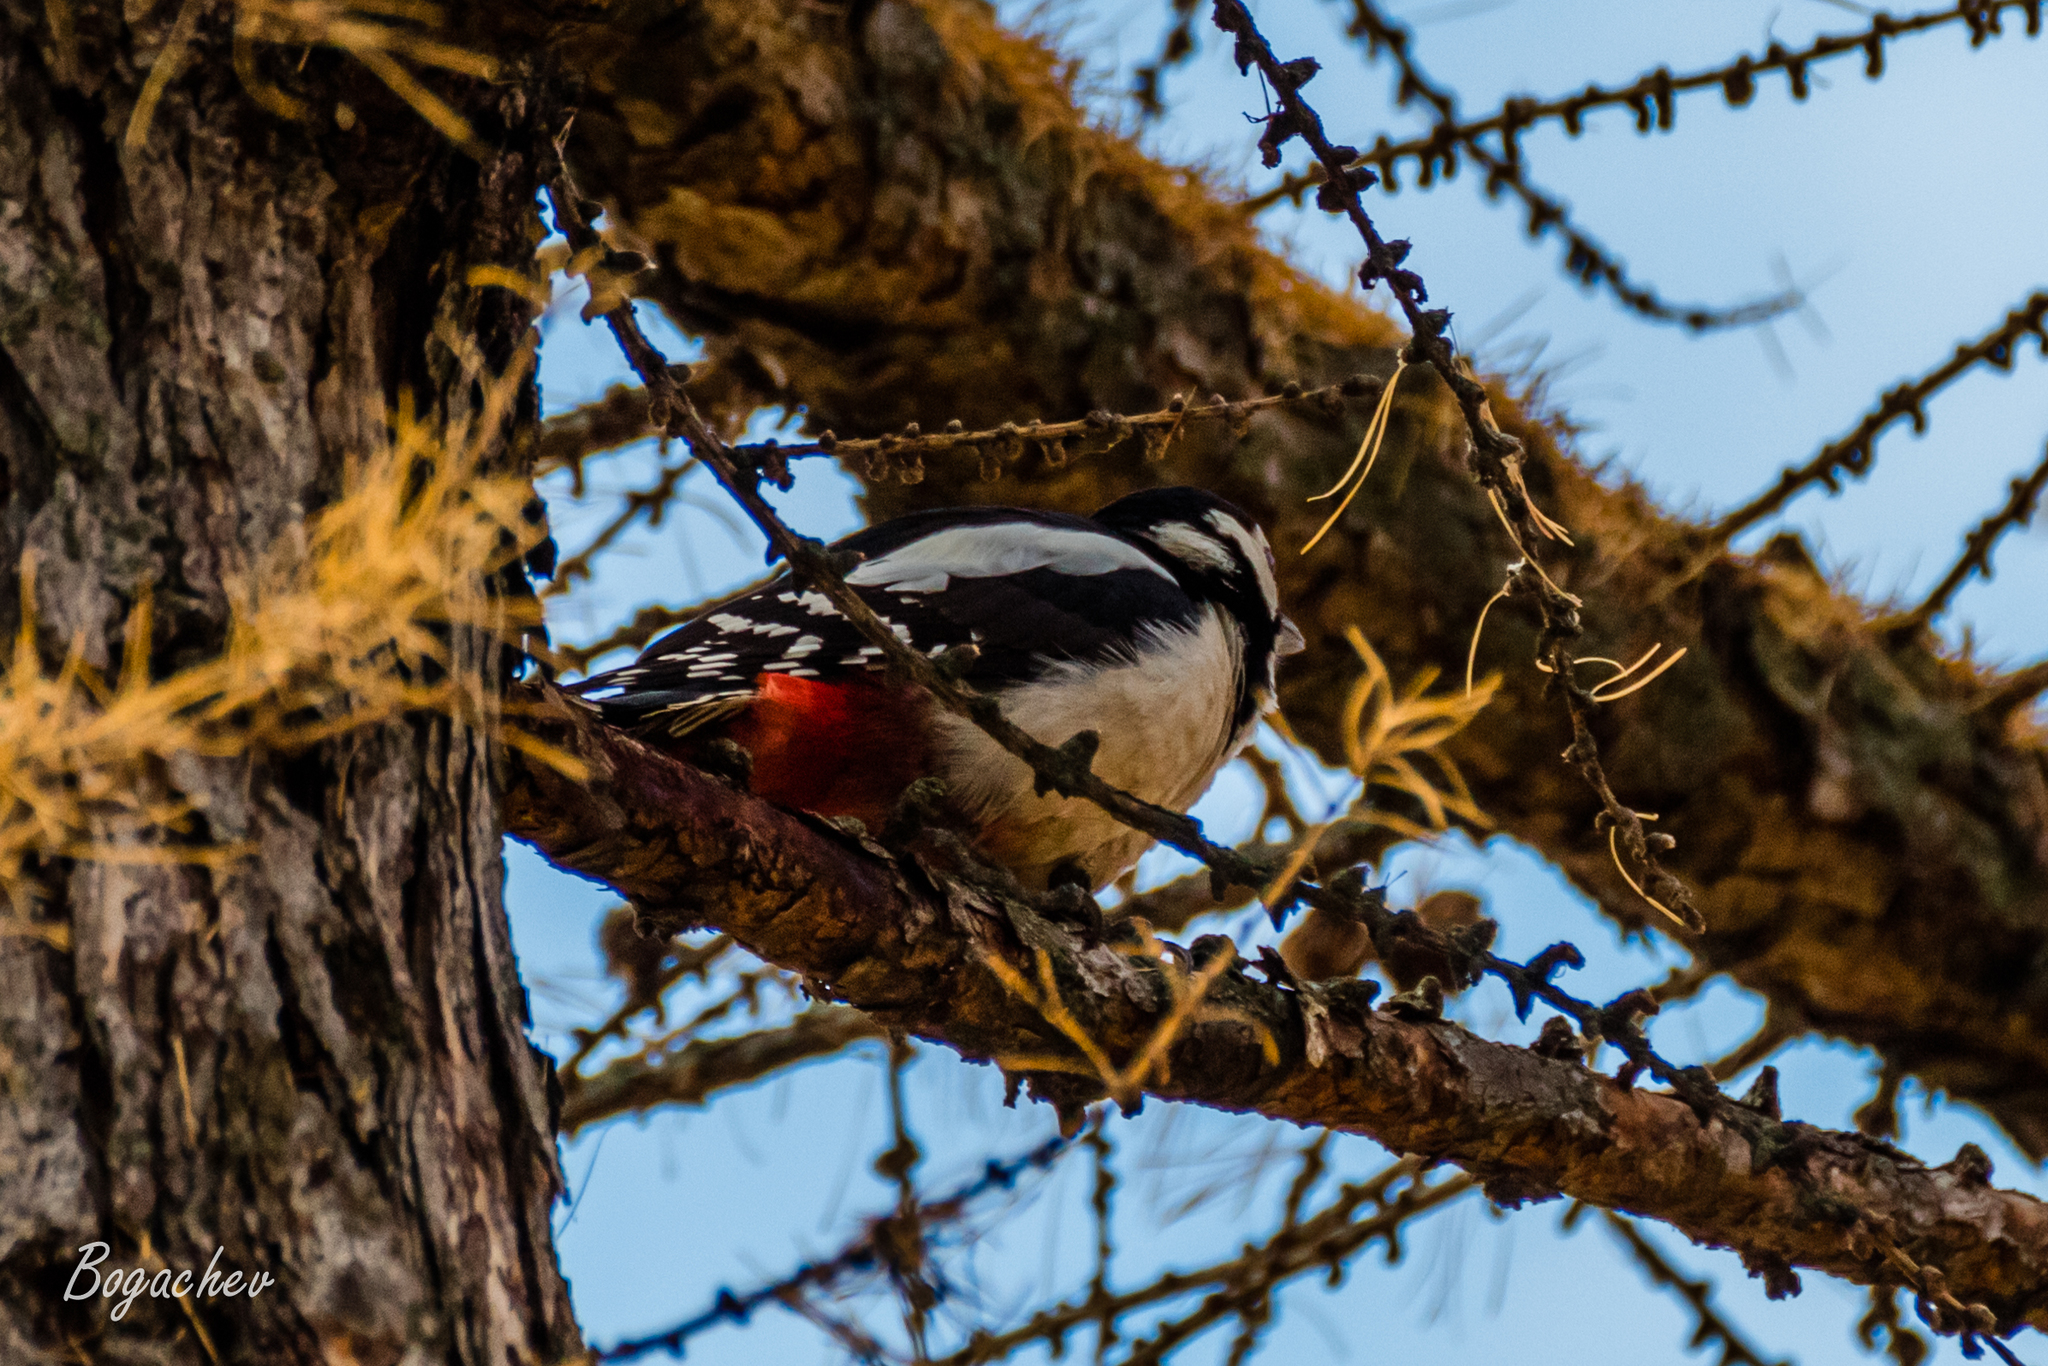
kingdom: Animalia
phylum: Chordata
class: Aves
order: Piciformes
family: Picidae
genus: Dendrocopos
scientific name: Dendrocopos major
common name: Great spotted woodpecker
